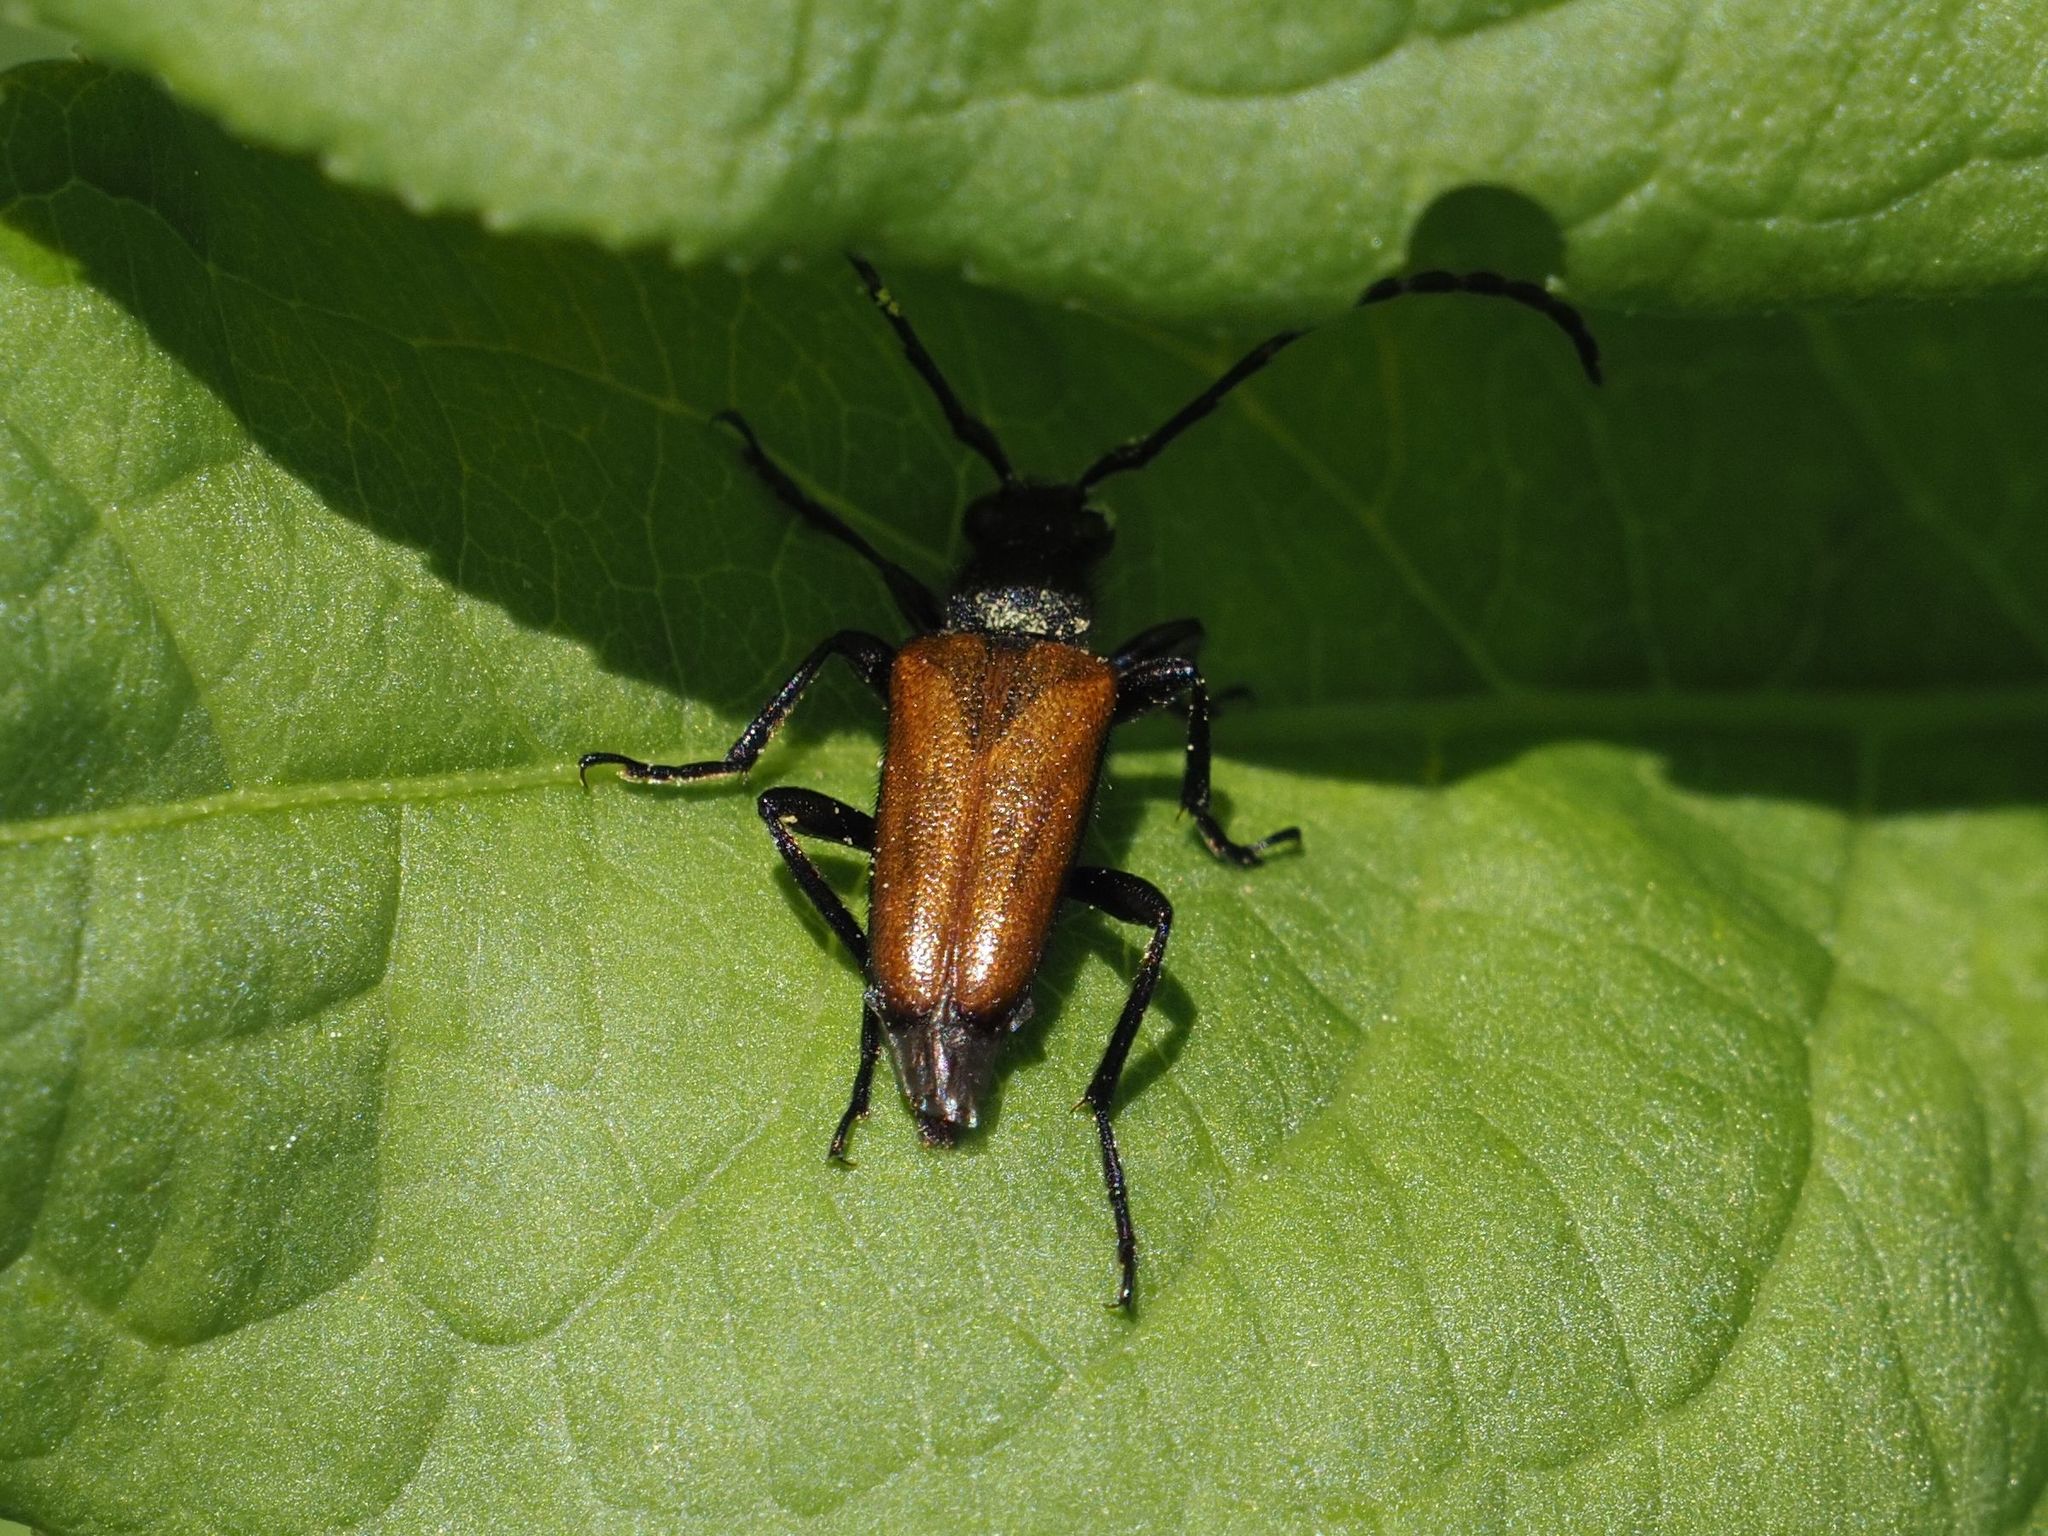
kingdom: Animalia
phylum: Arthropoda
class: Insecta
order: Coleoptera
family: Cerambycidae
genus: Paracorymbia
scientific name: Paracorymbia maculicornis
